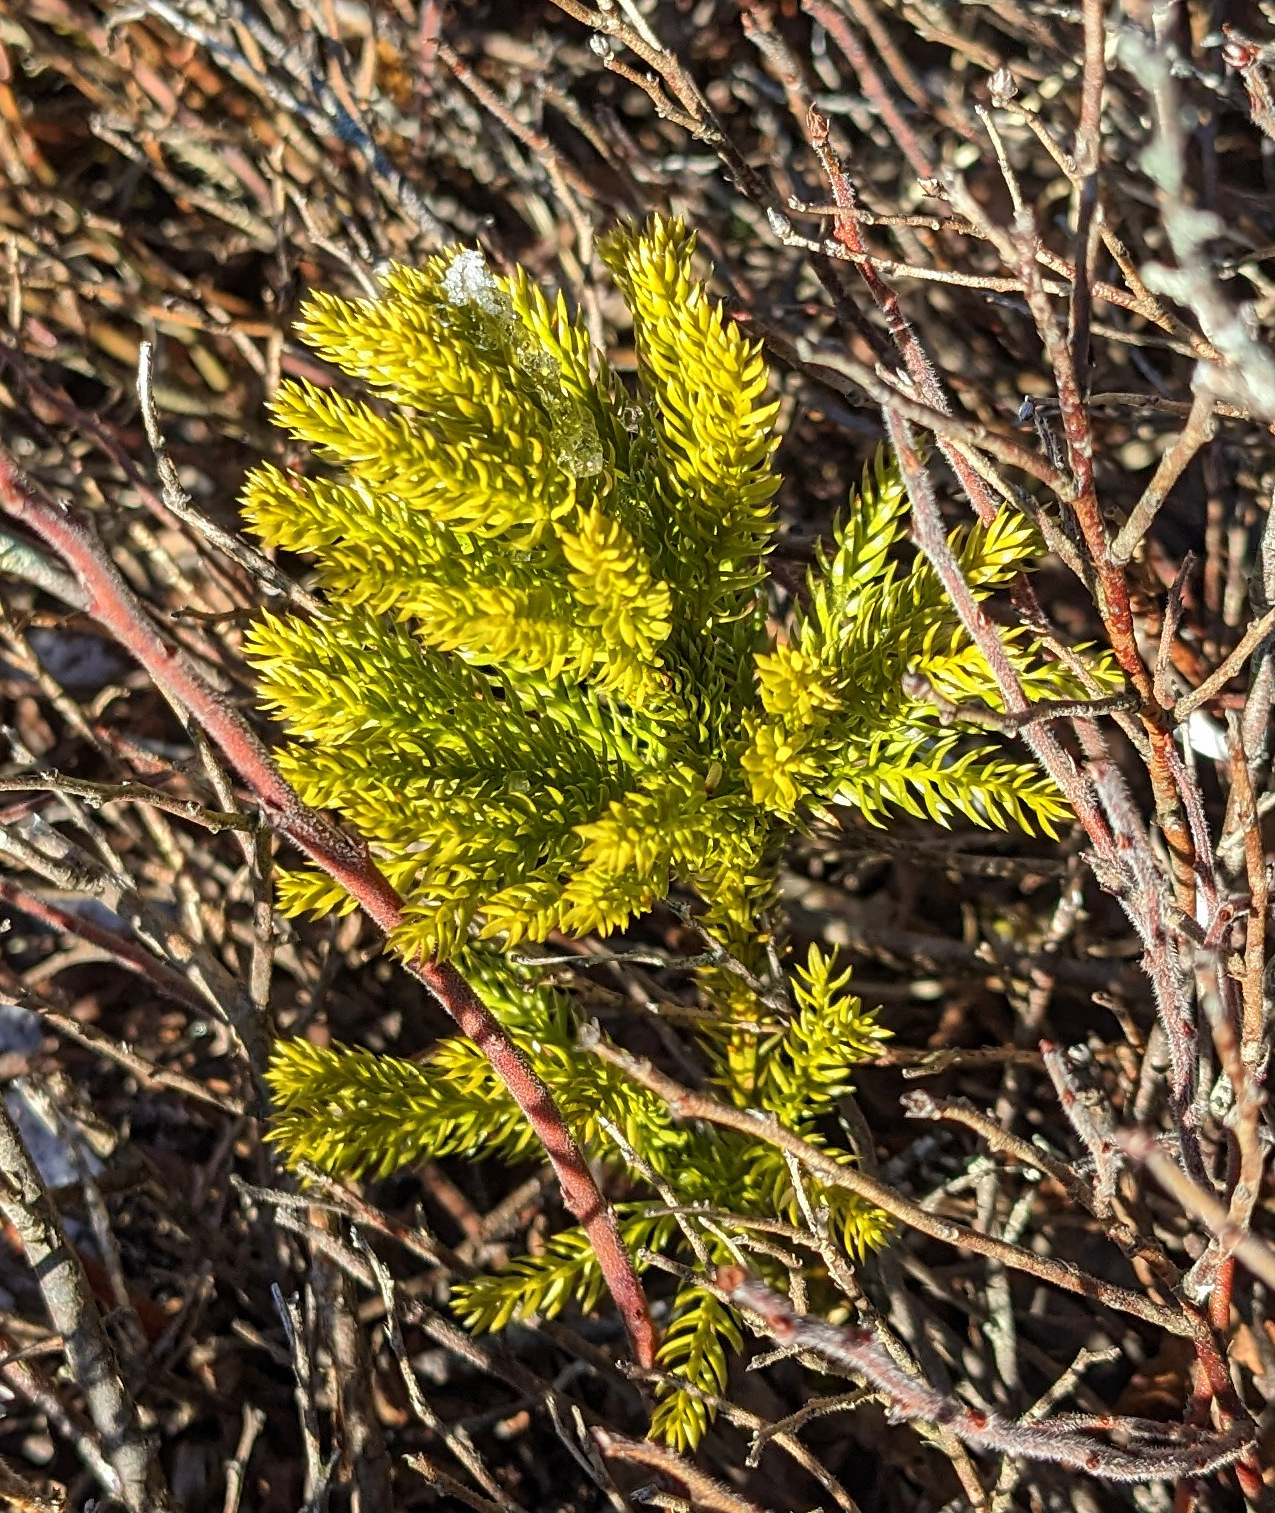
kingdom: Plantae
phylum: Tracheophyta
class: Lycopodiopsida
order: Lycopodiales
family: Lycopodiaceae
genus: Dendrolycopodium
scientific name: Dendrolycopodium dendroideum
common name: Northern tree-clubmoss
